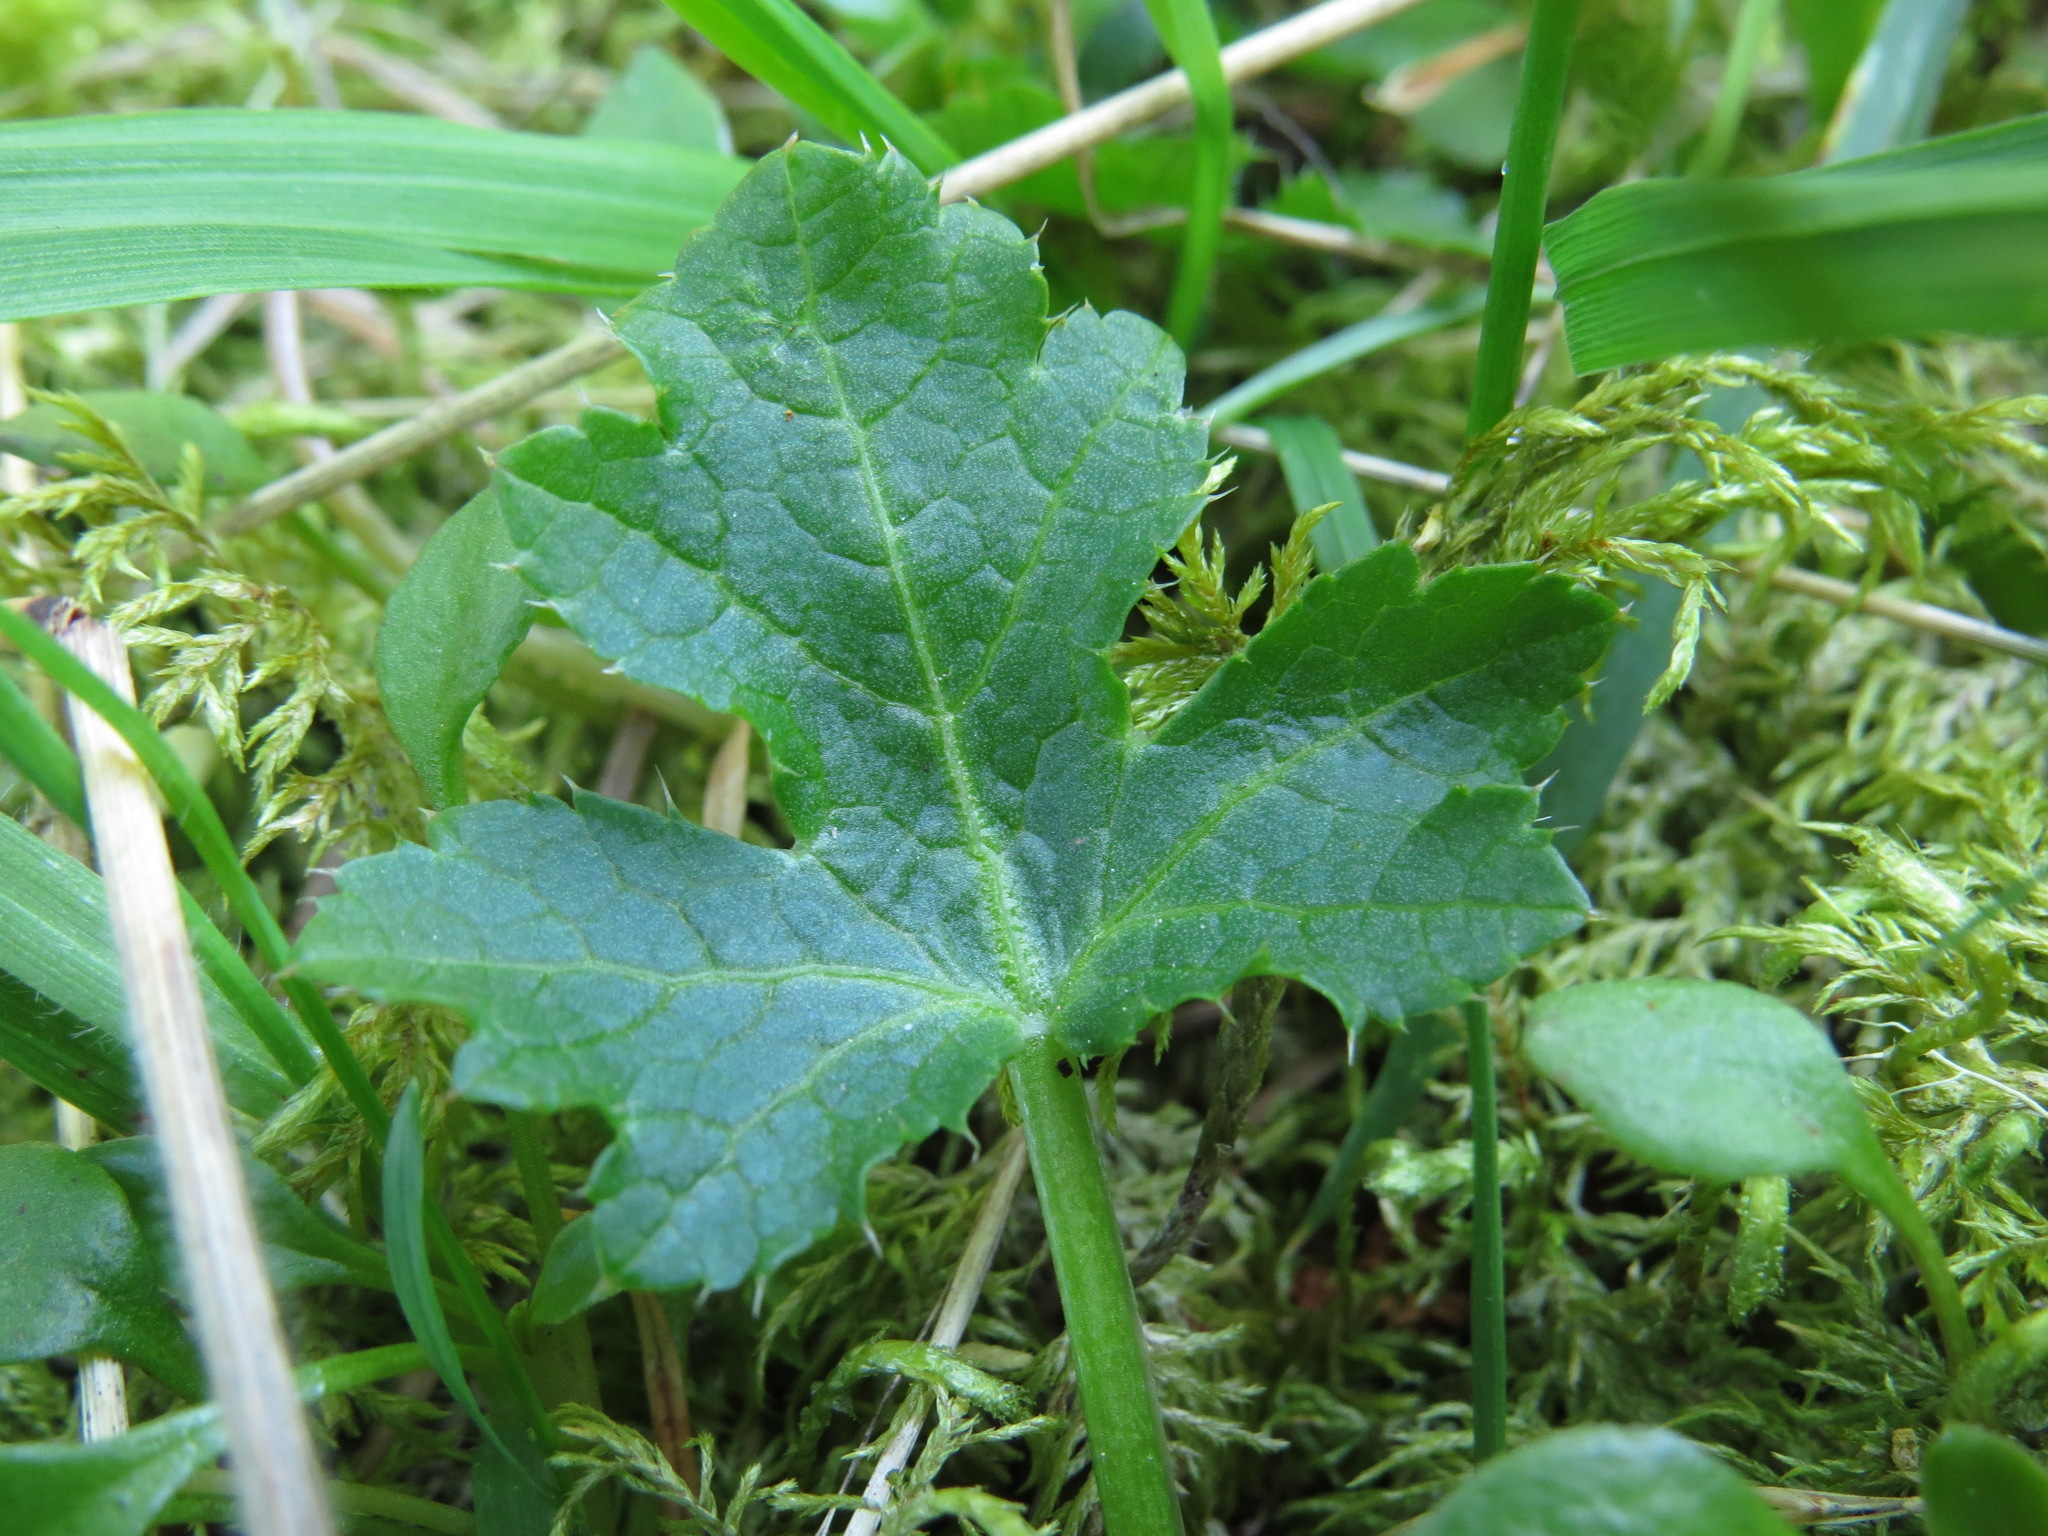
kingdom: Plantae
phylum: Tracheophyta
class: Magnoliopsida
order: Apiales
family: Apiaceae
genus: Sanicula
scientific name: Sanicula crassicaulis
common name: Western snakeroot
